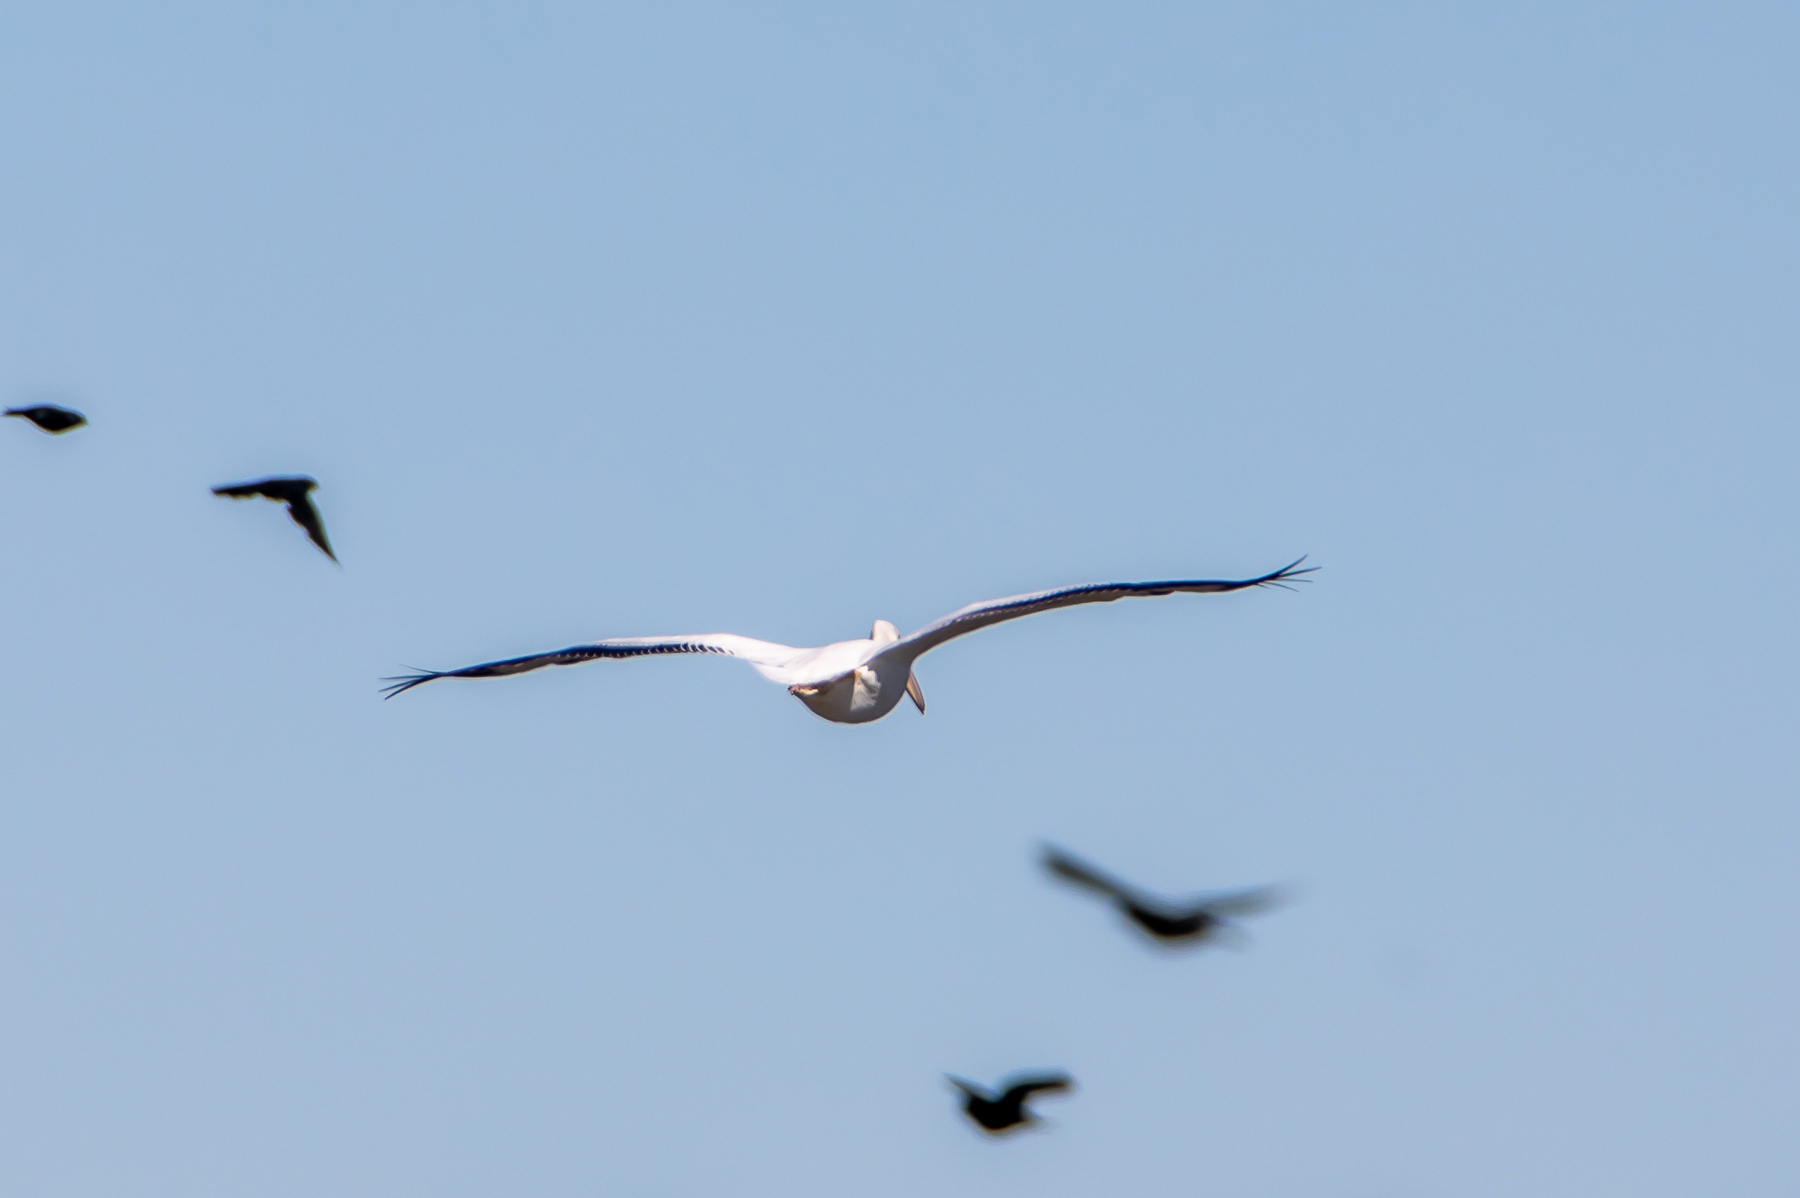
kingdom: Animalia
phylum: Chordata
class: Aves
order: Pelecaniformes
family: Pelecanidae
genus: Pelecanus
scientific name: Pelecanus erythrorhynchos
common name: American white pelican
